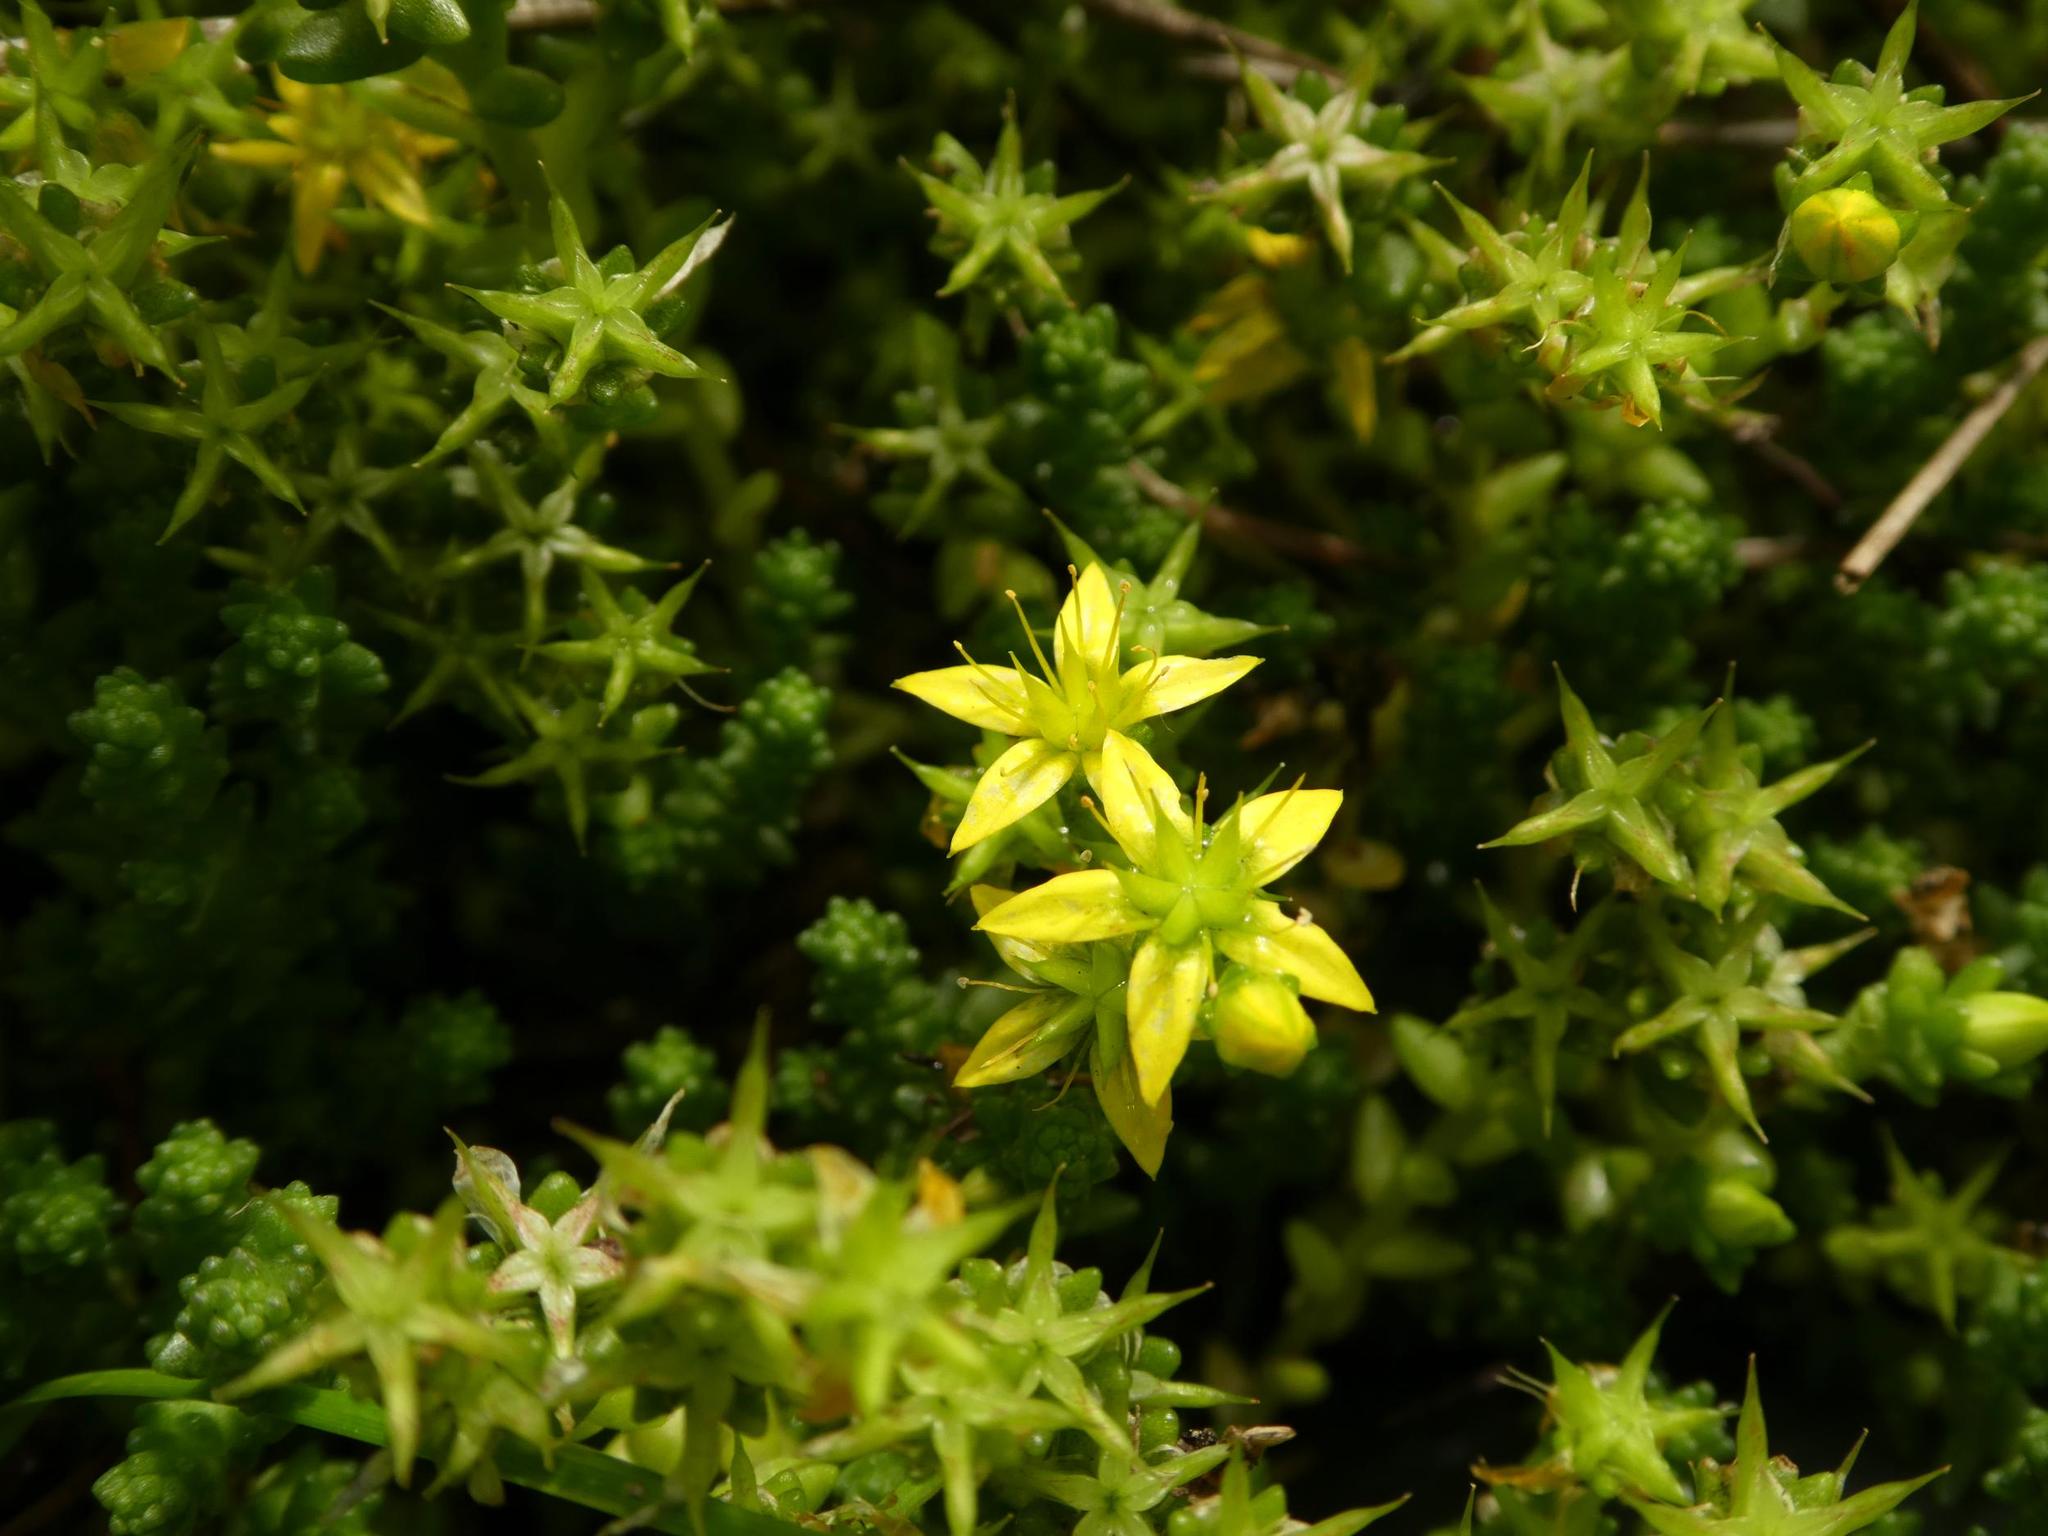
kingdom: Plantae
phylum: Tracheophyta
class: Magnoliopsida
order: Saxifragales
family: Crassulaceae
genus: Sedum
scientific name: Sedum acre
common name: Biting stonecrop
